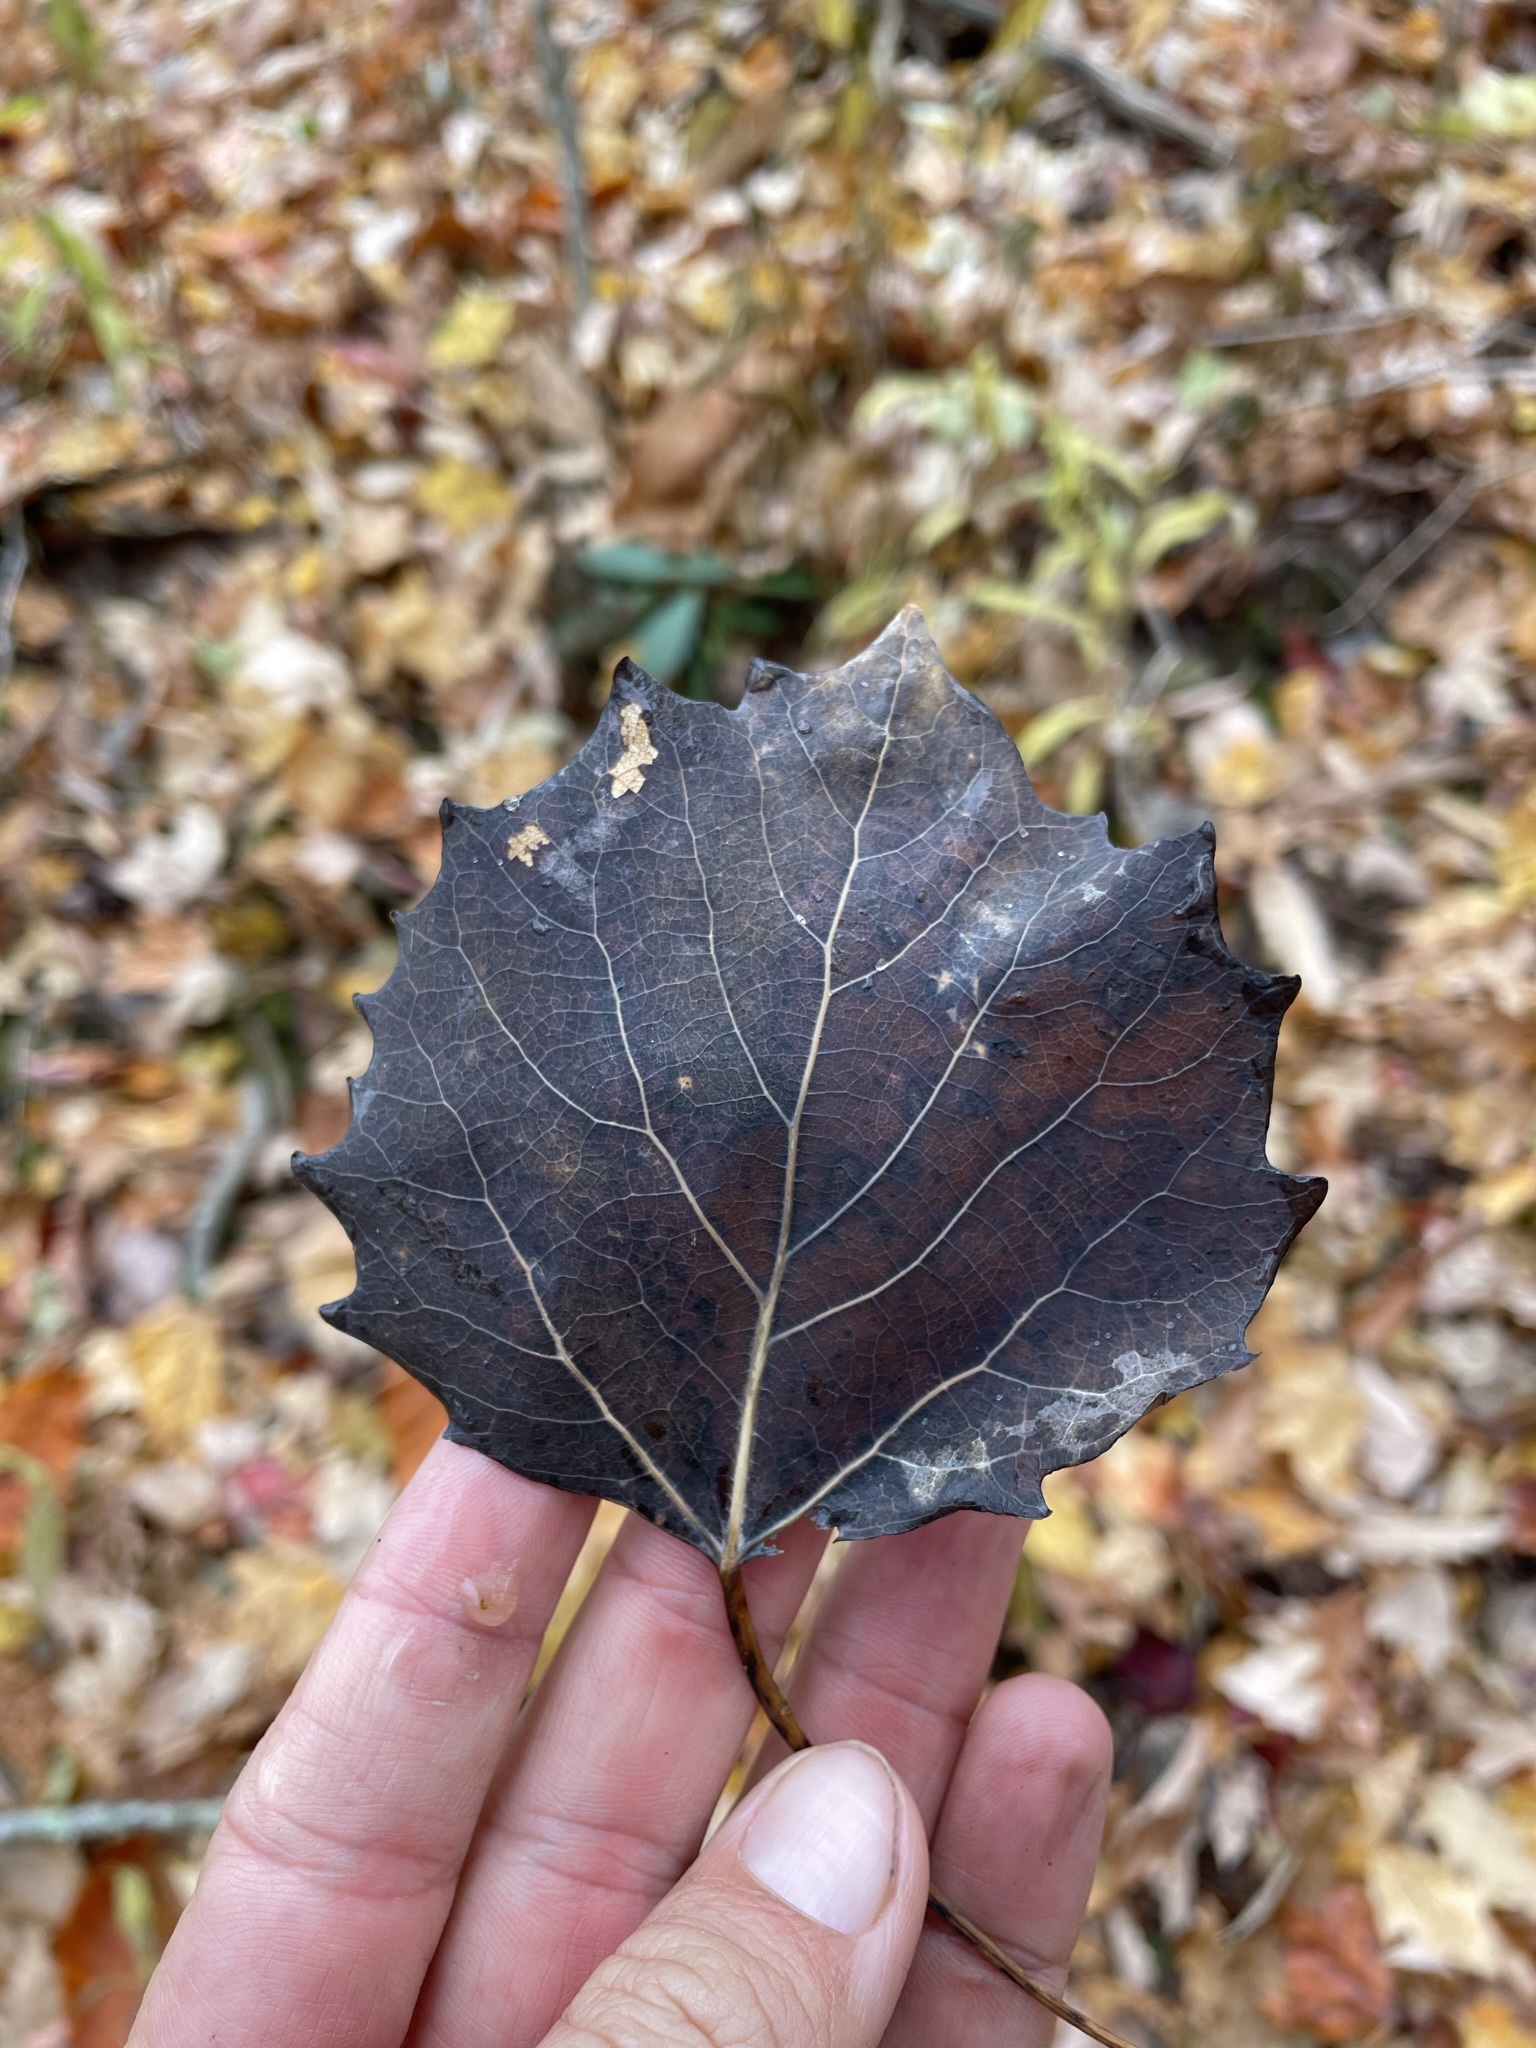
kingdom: Plantae
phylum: Tracheophyta
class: Magnoliopsida
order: Malpighiales
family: Salicaceae
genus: Populus
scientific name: Populus grandidentata
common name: Bigtooth aspen
